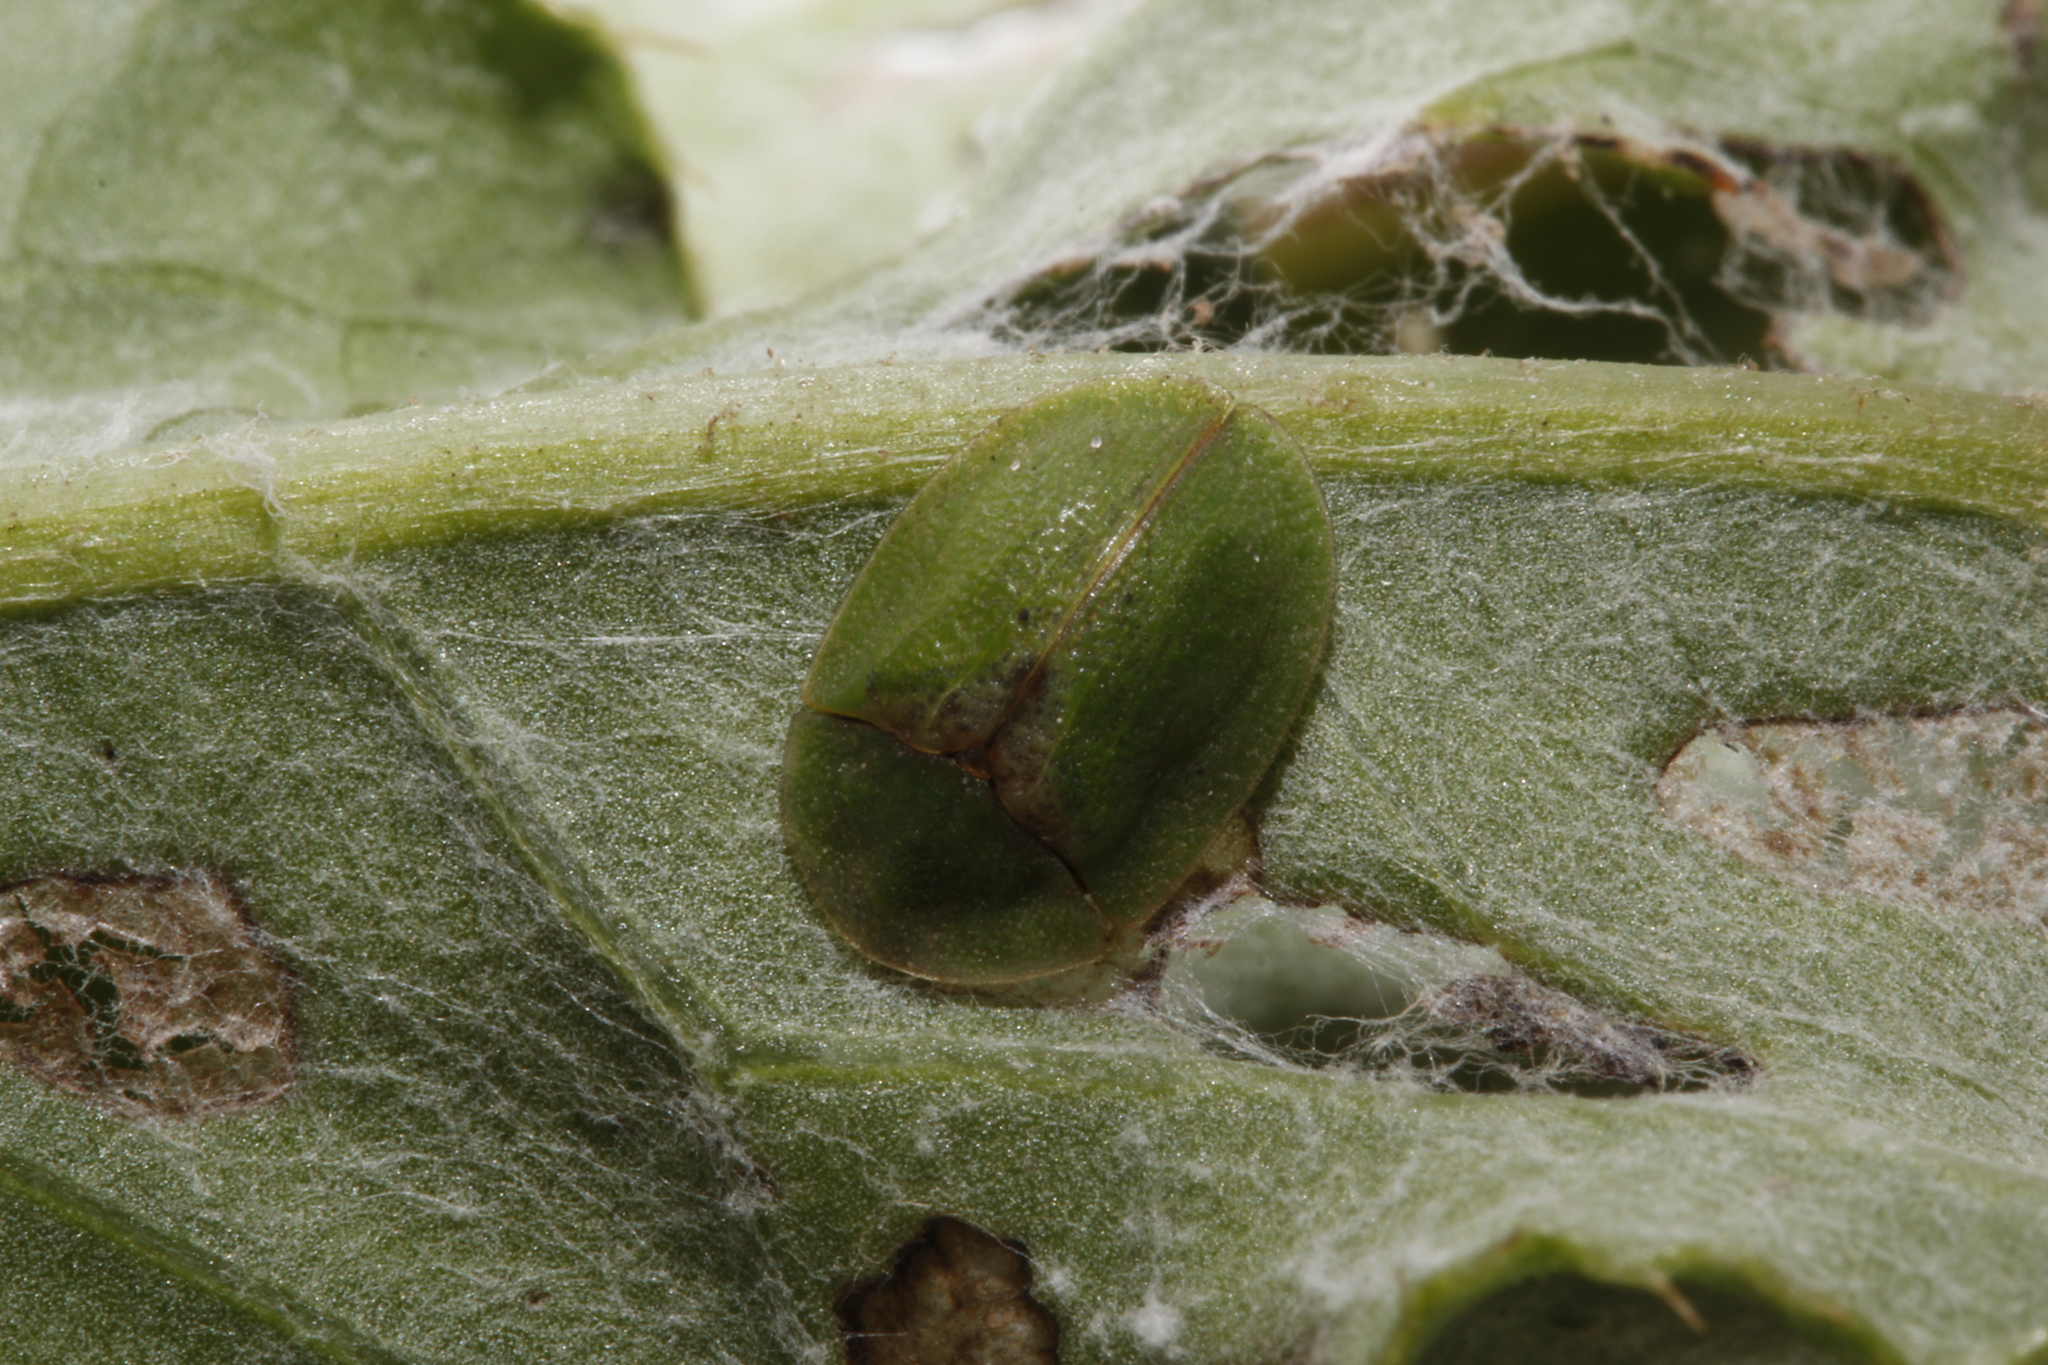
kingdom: Animalia
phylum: Arthropoda
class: Insecta
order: Coleoptera
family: Chrysomelidae
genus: Cassida
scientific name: Cassida rubiginosa
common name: Thistle tortoise beetle
